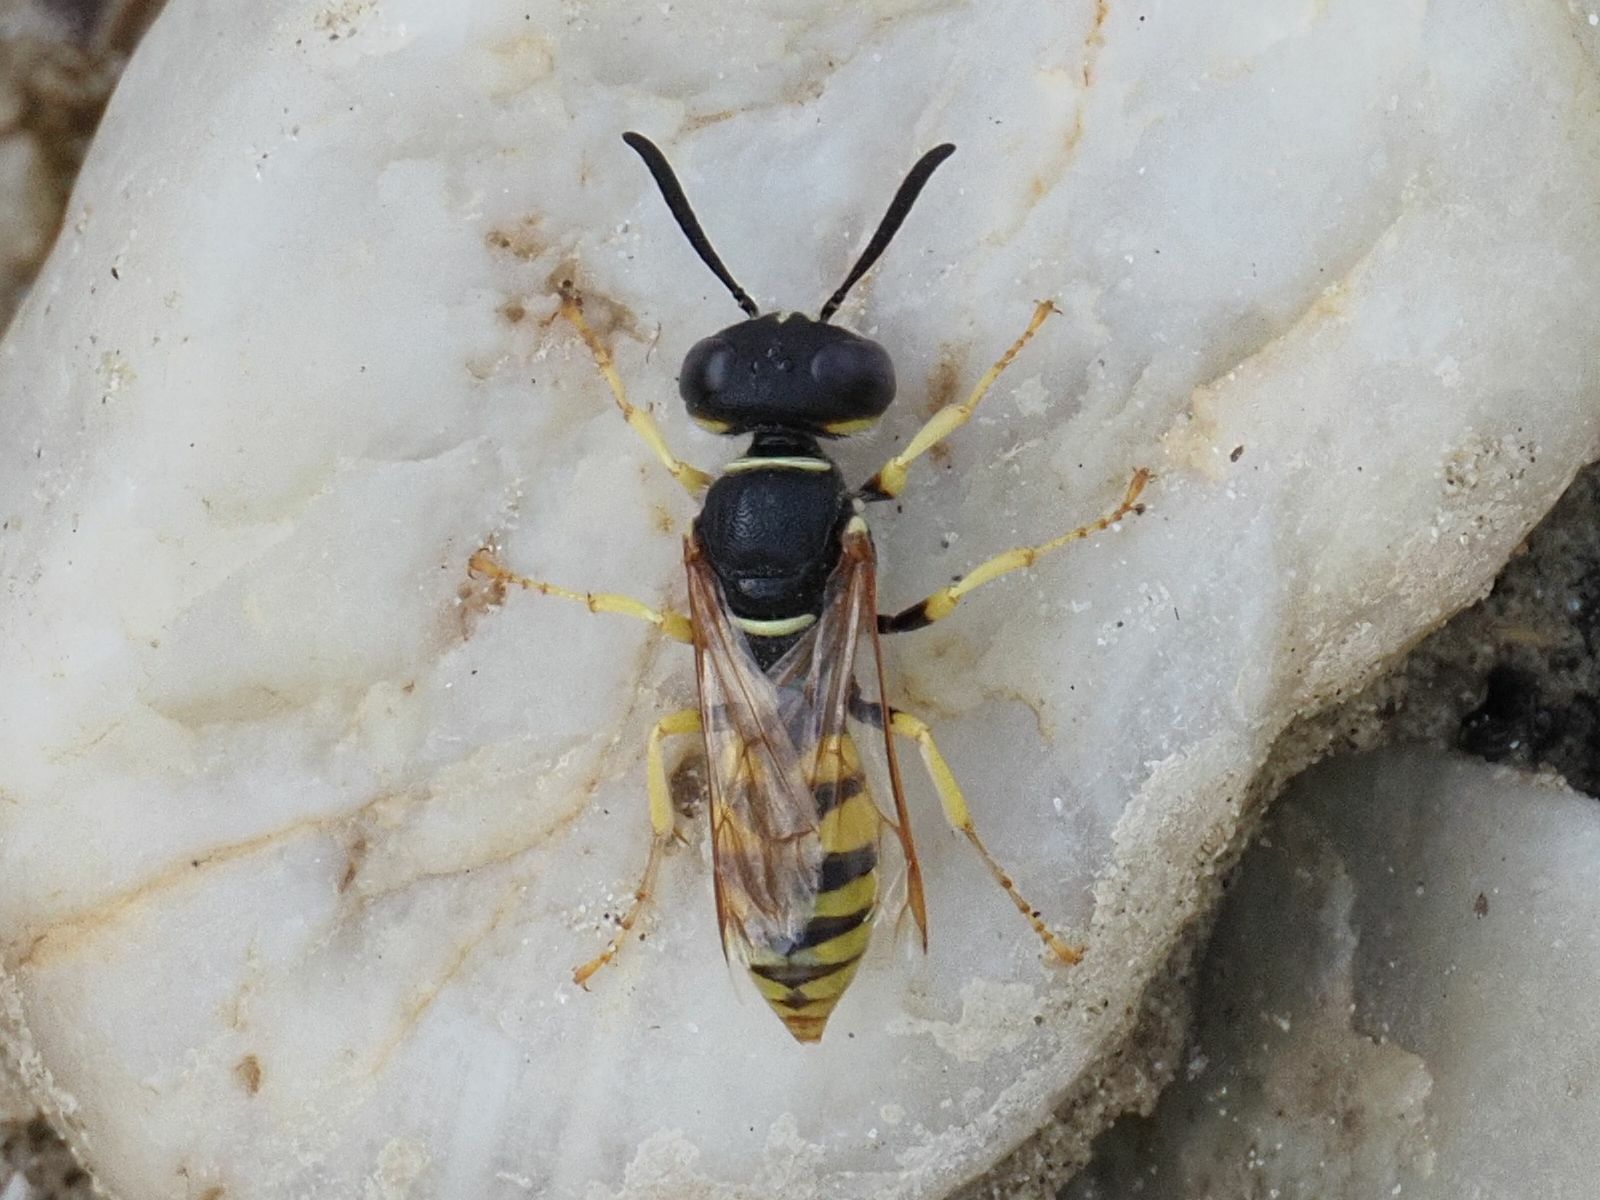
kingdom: Animalia
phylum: Arthropoda
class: Insecta
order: Hymenoptera
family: Crabronidae
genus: Philanthus
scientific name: Philanthus triangulum
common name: Bee wolf
